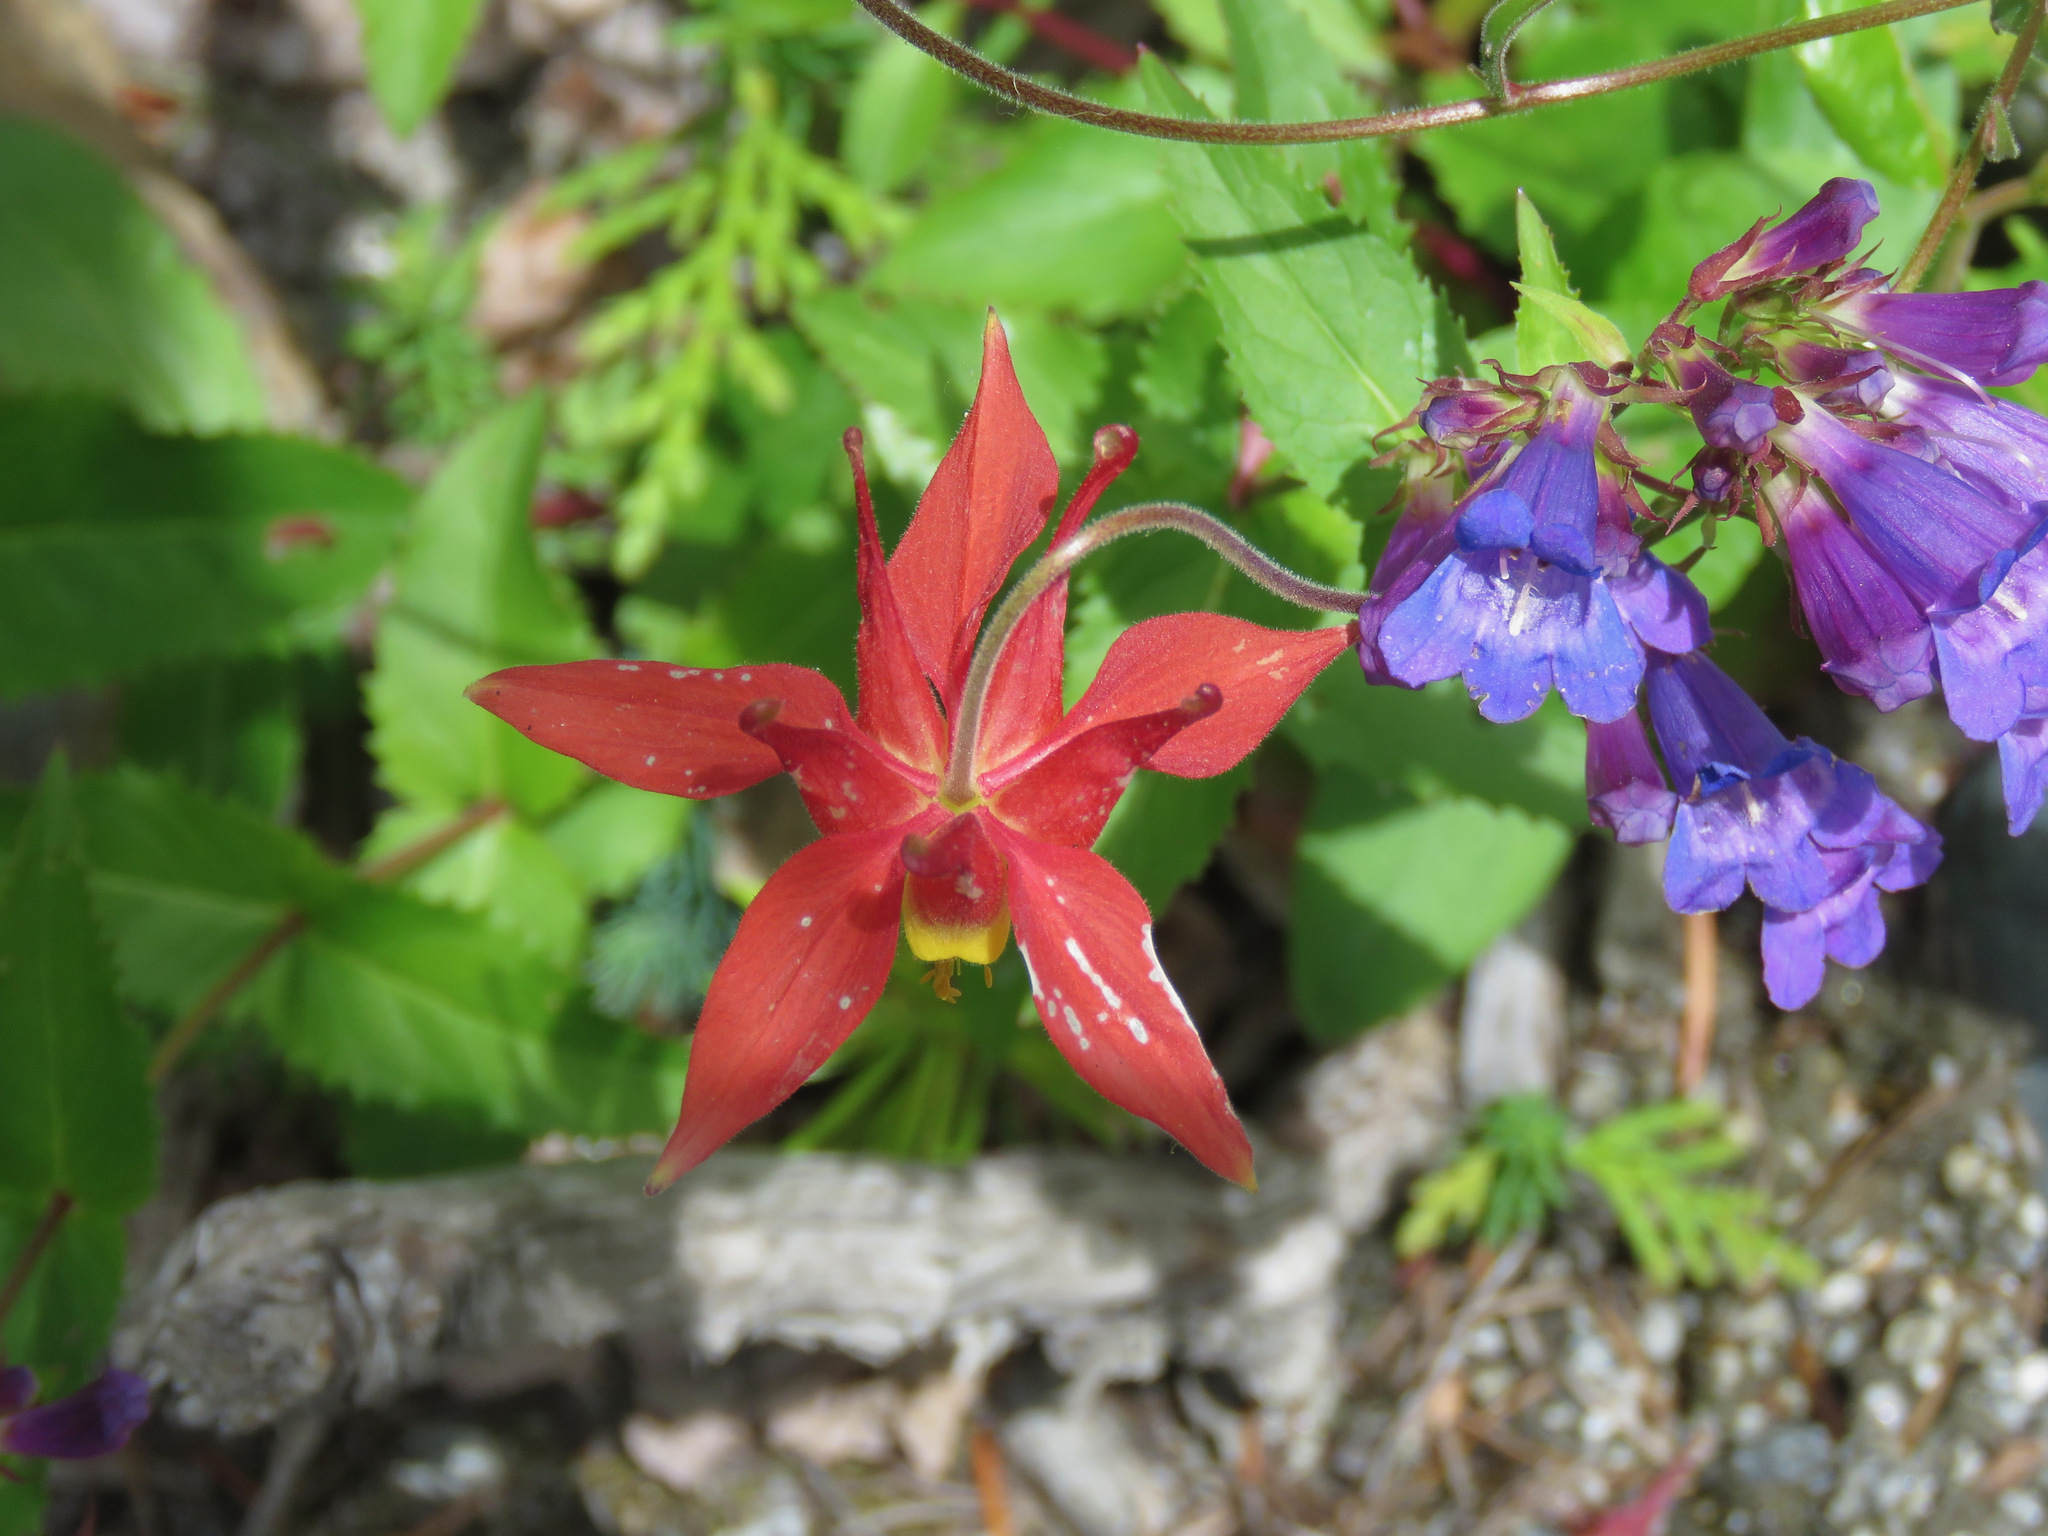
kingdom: Plantae
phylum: Tracheophyta
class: Magnoliopsida
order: Ranunculales
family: Ranunculaceae
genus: Aquilegia
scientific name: Aquilegia formosa
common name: Sitka columbine
